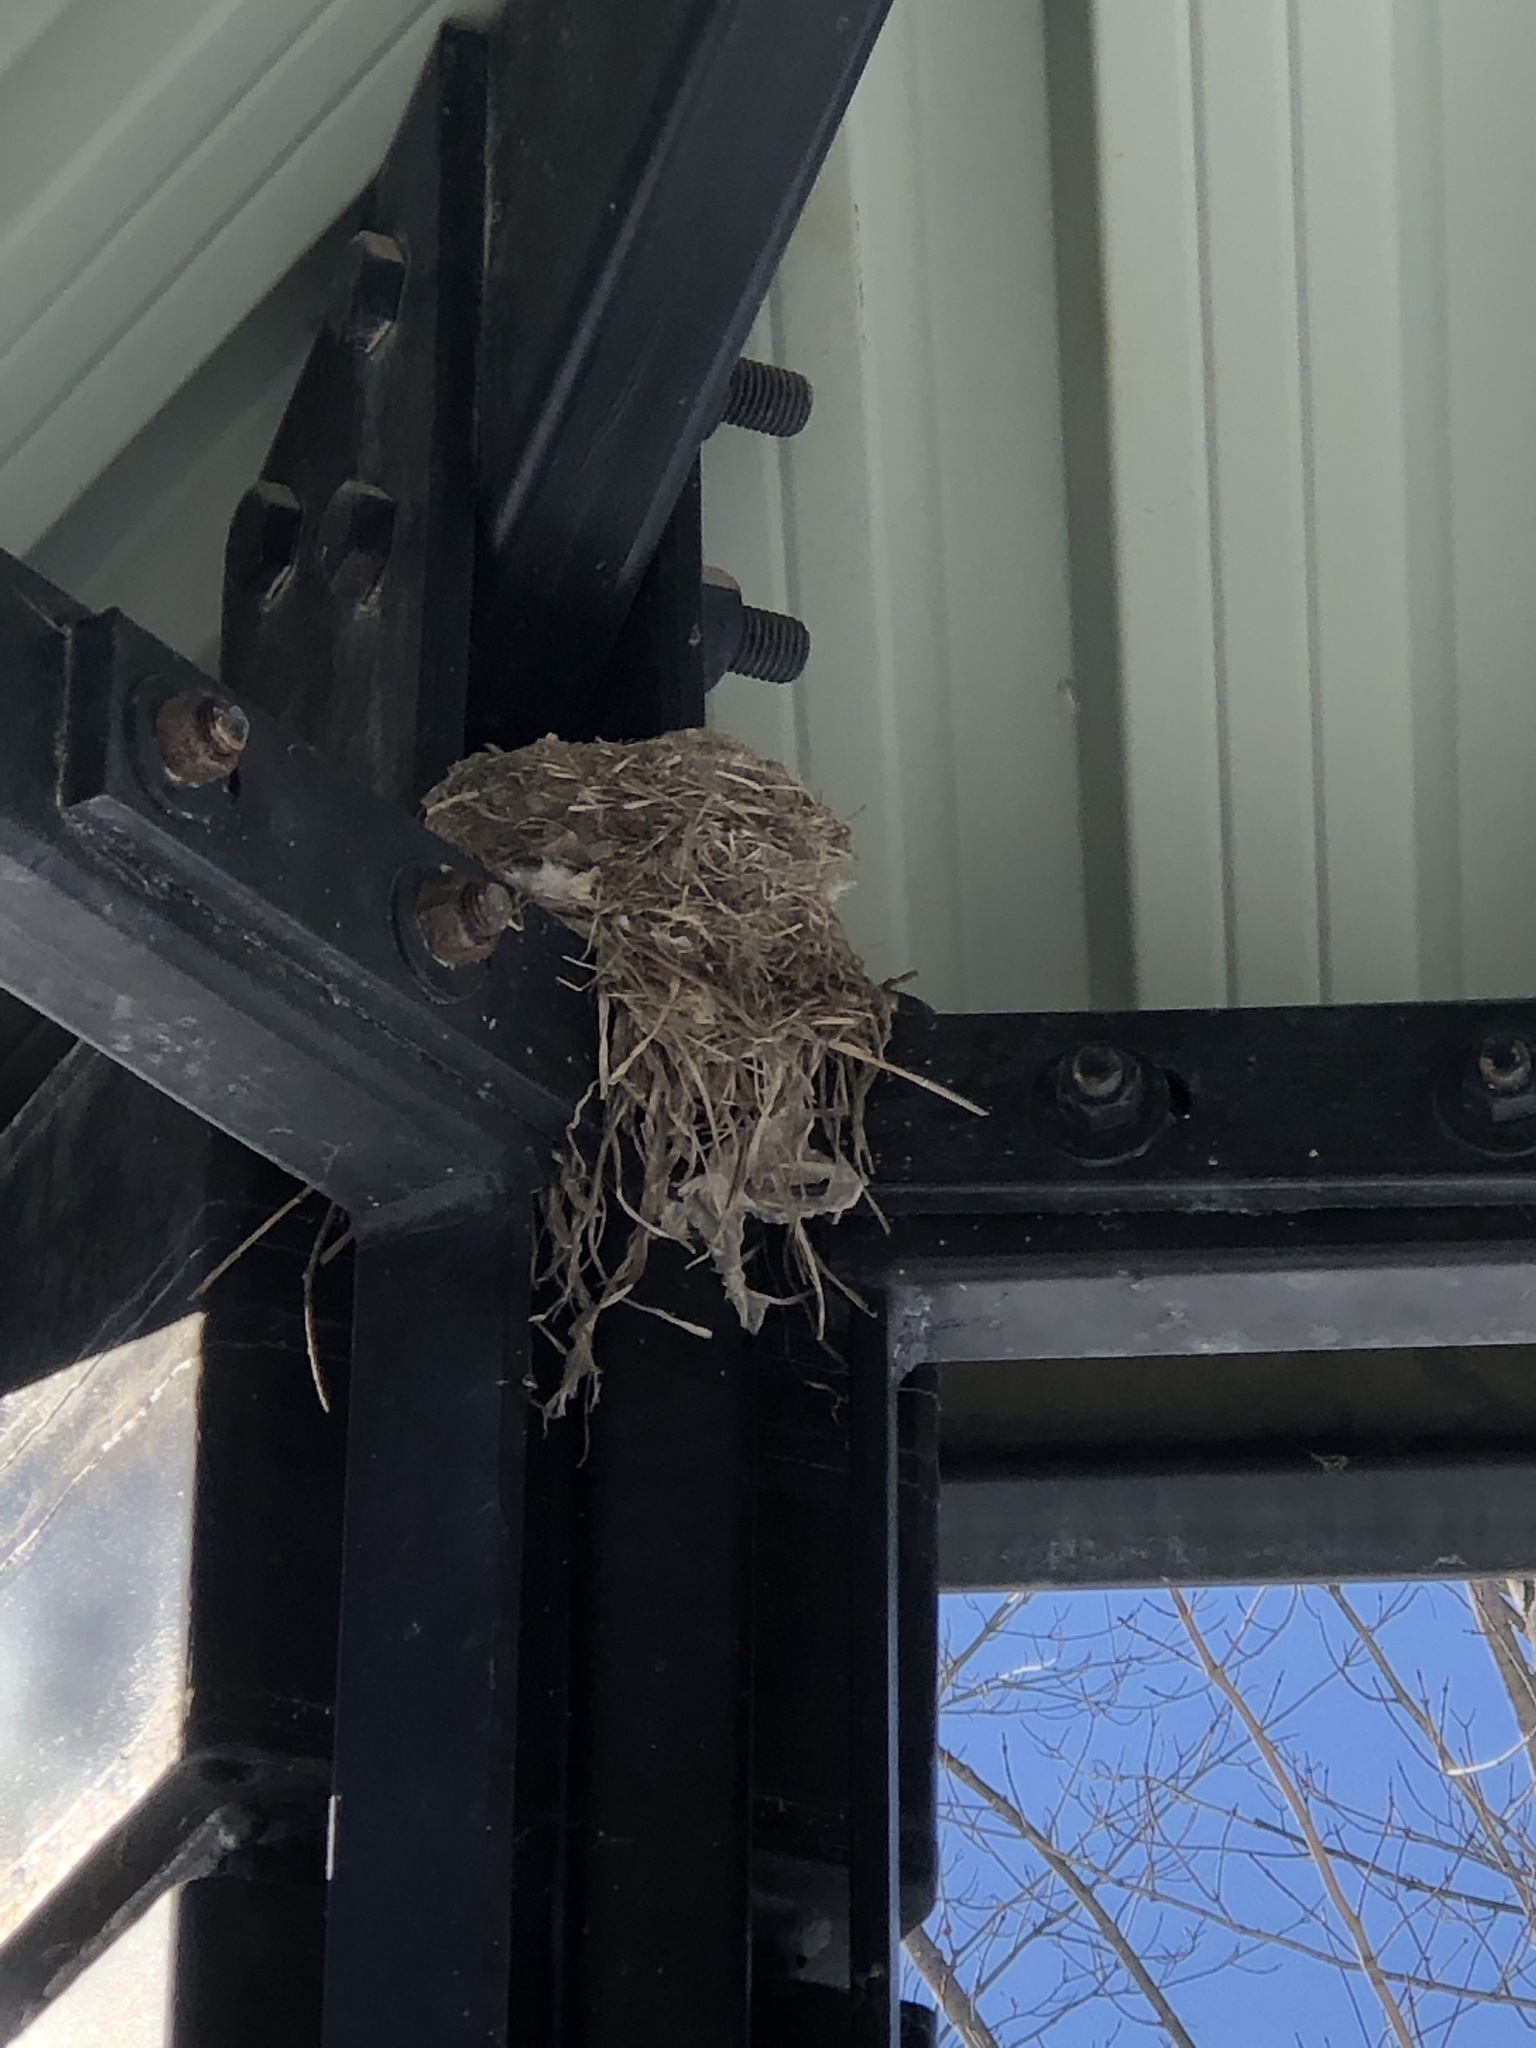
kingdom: Animalia
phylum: Chordata
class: Aves
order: Passeriformes
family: Turdidae
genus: Turdus
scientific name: Turdus migratorius
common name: American robin
